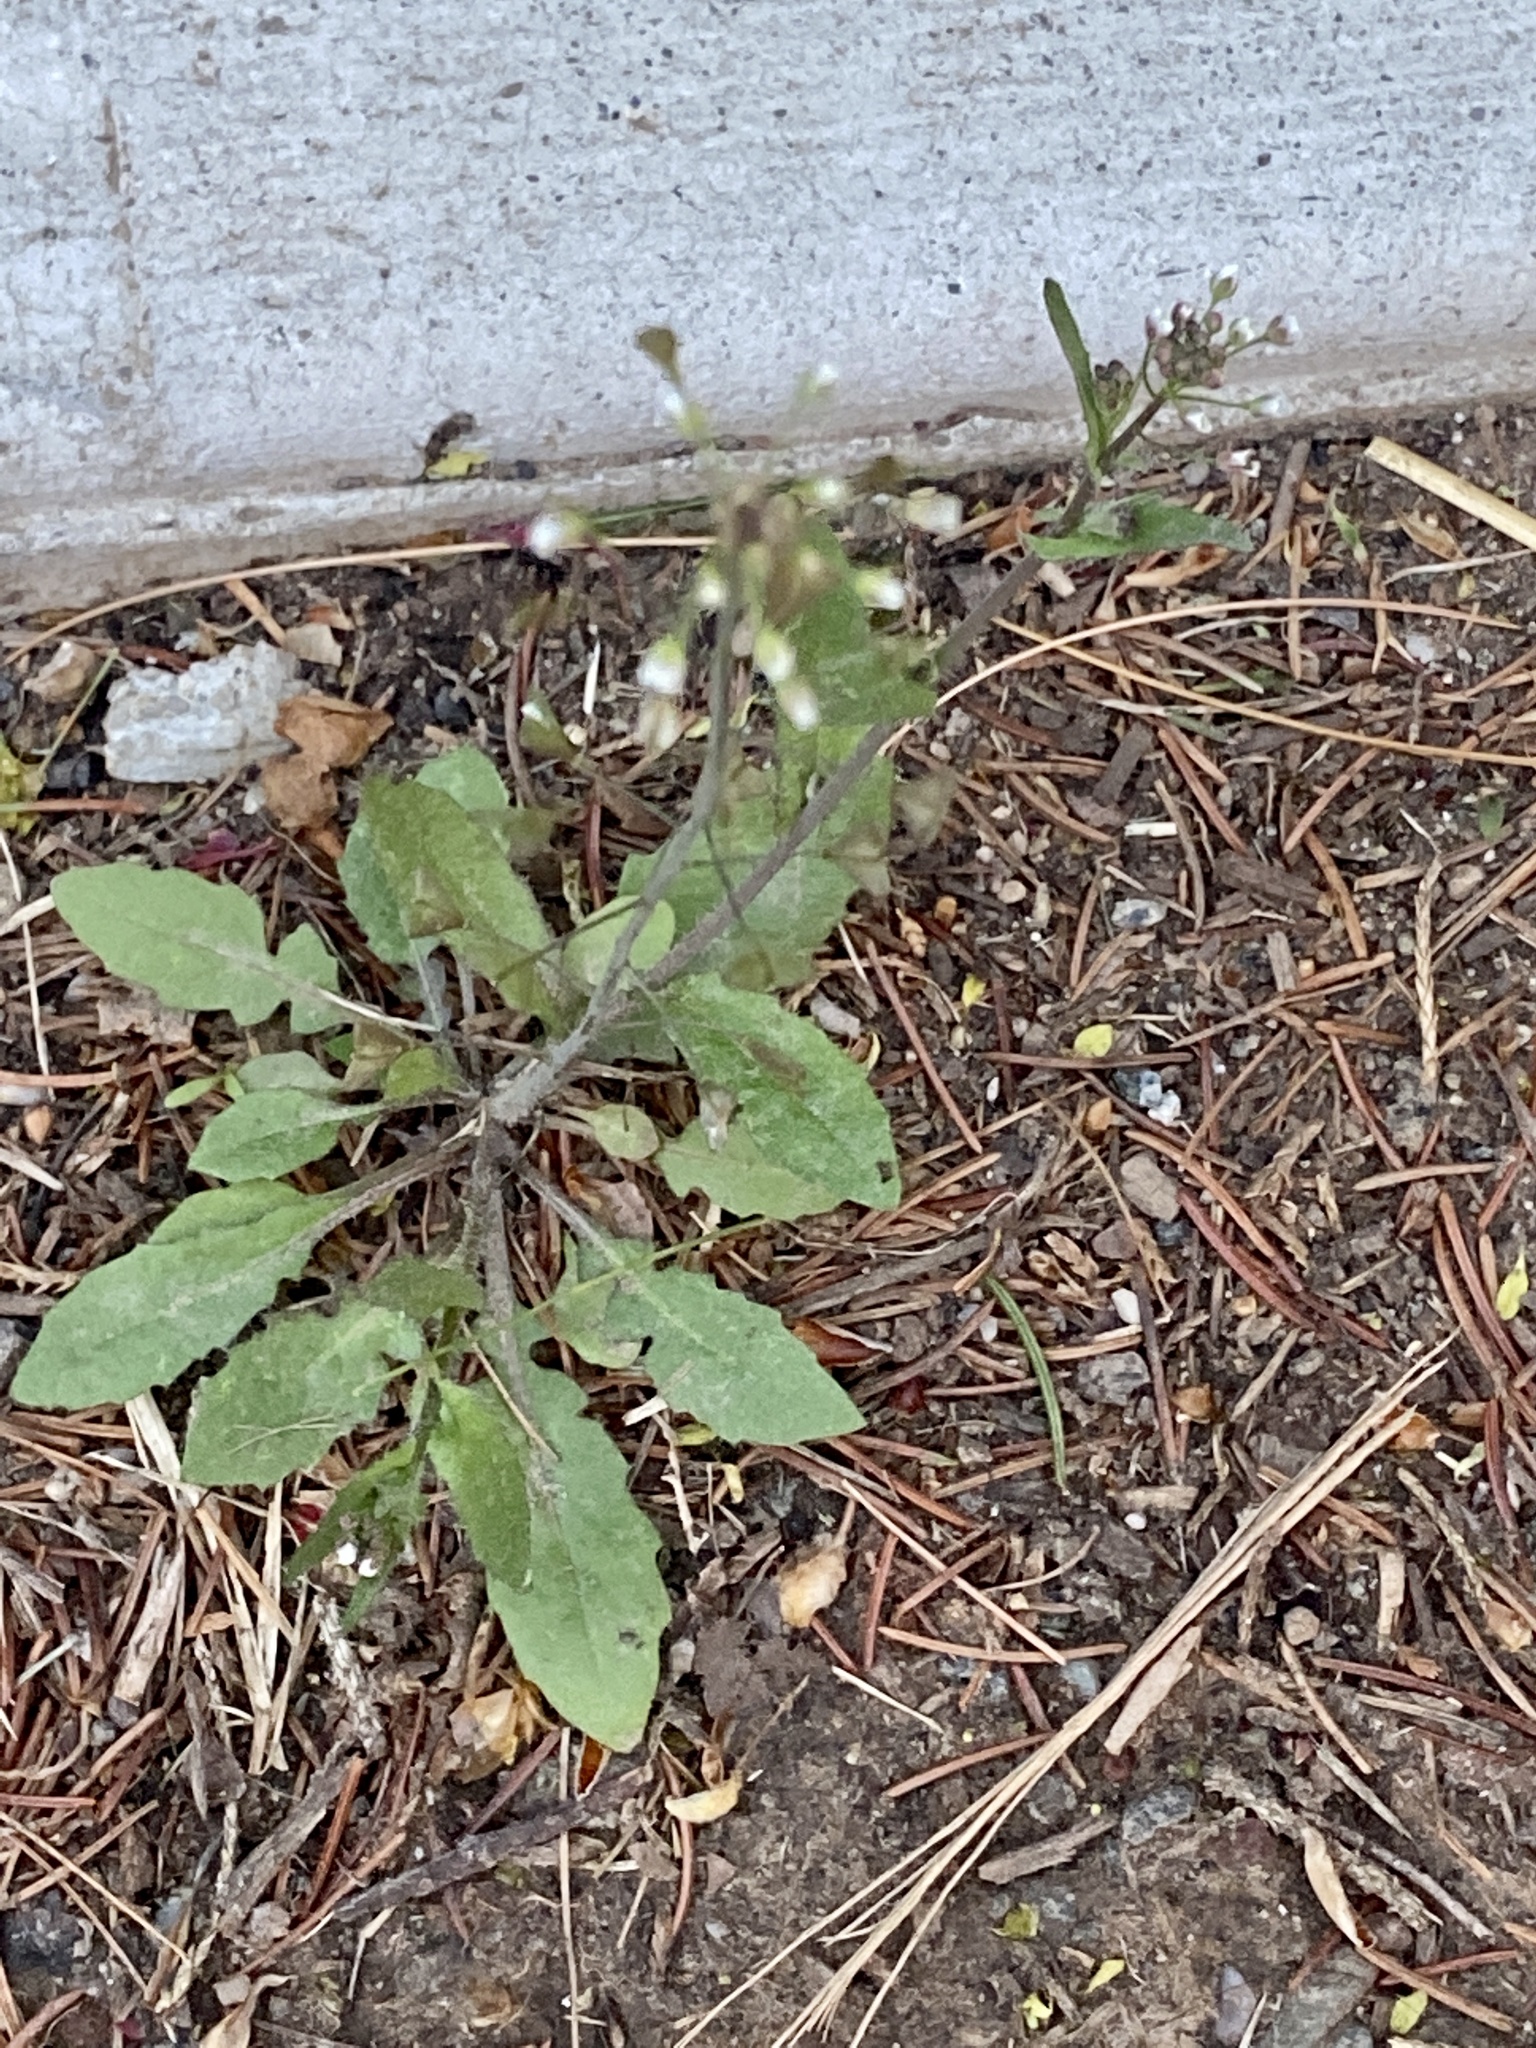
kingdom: Plantae
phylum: Tracheophyta
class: Magnoliopsida
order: Brassicales
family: Brassicaceae
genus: Capsella
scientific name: Capsella bursa-pastoris
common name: Shepherd's purse
